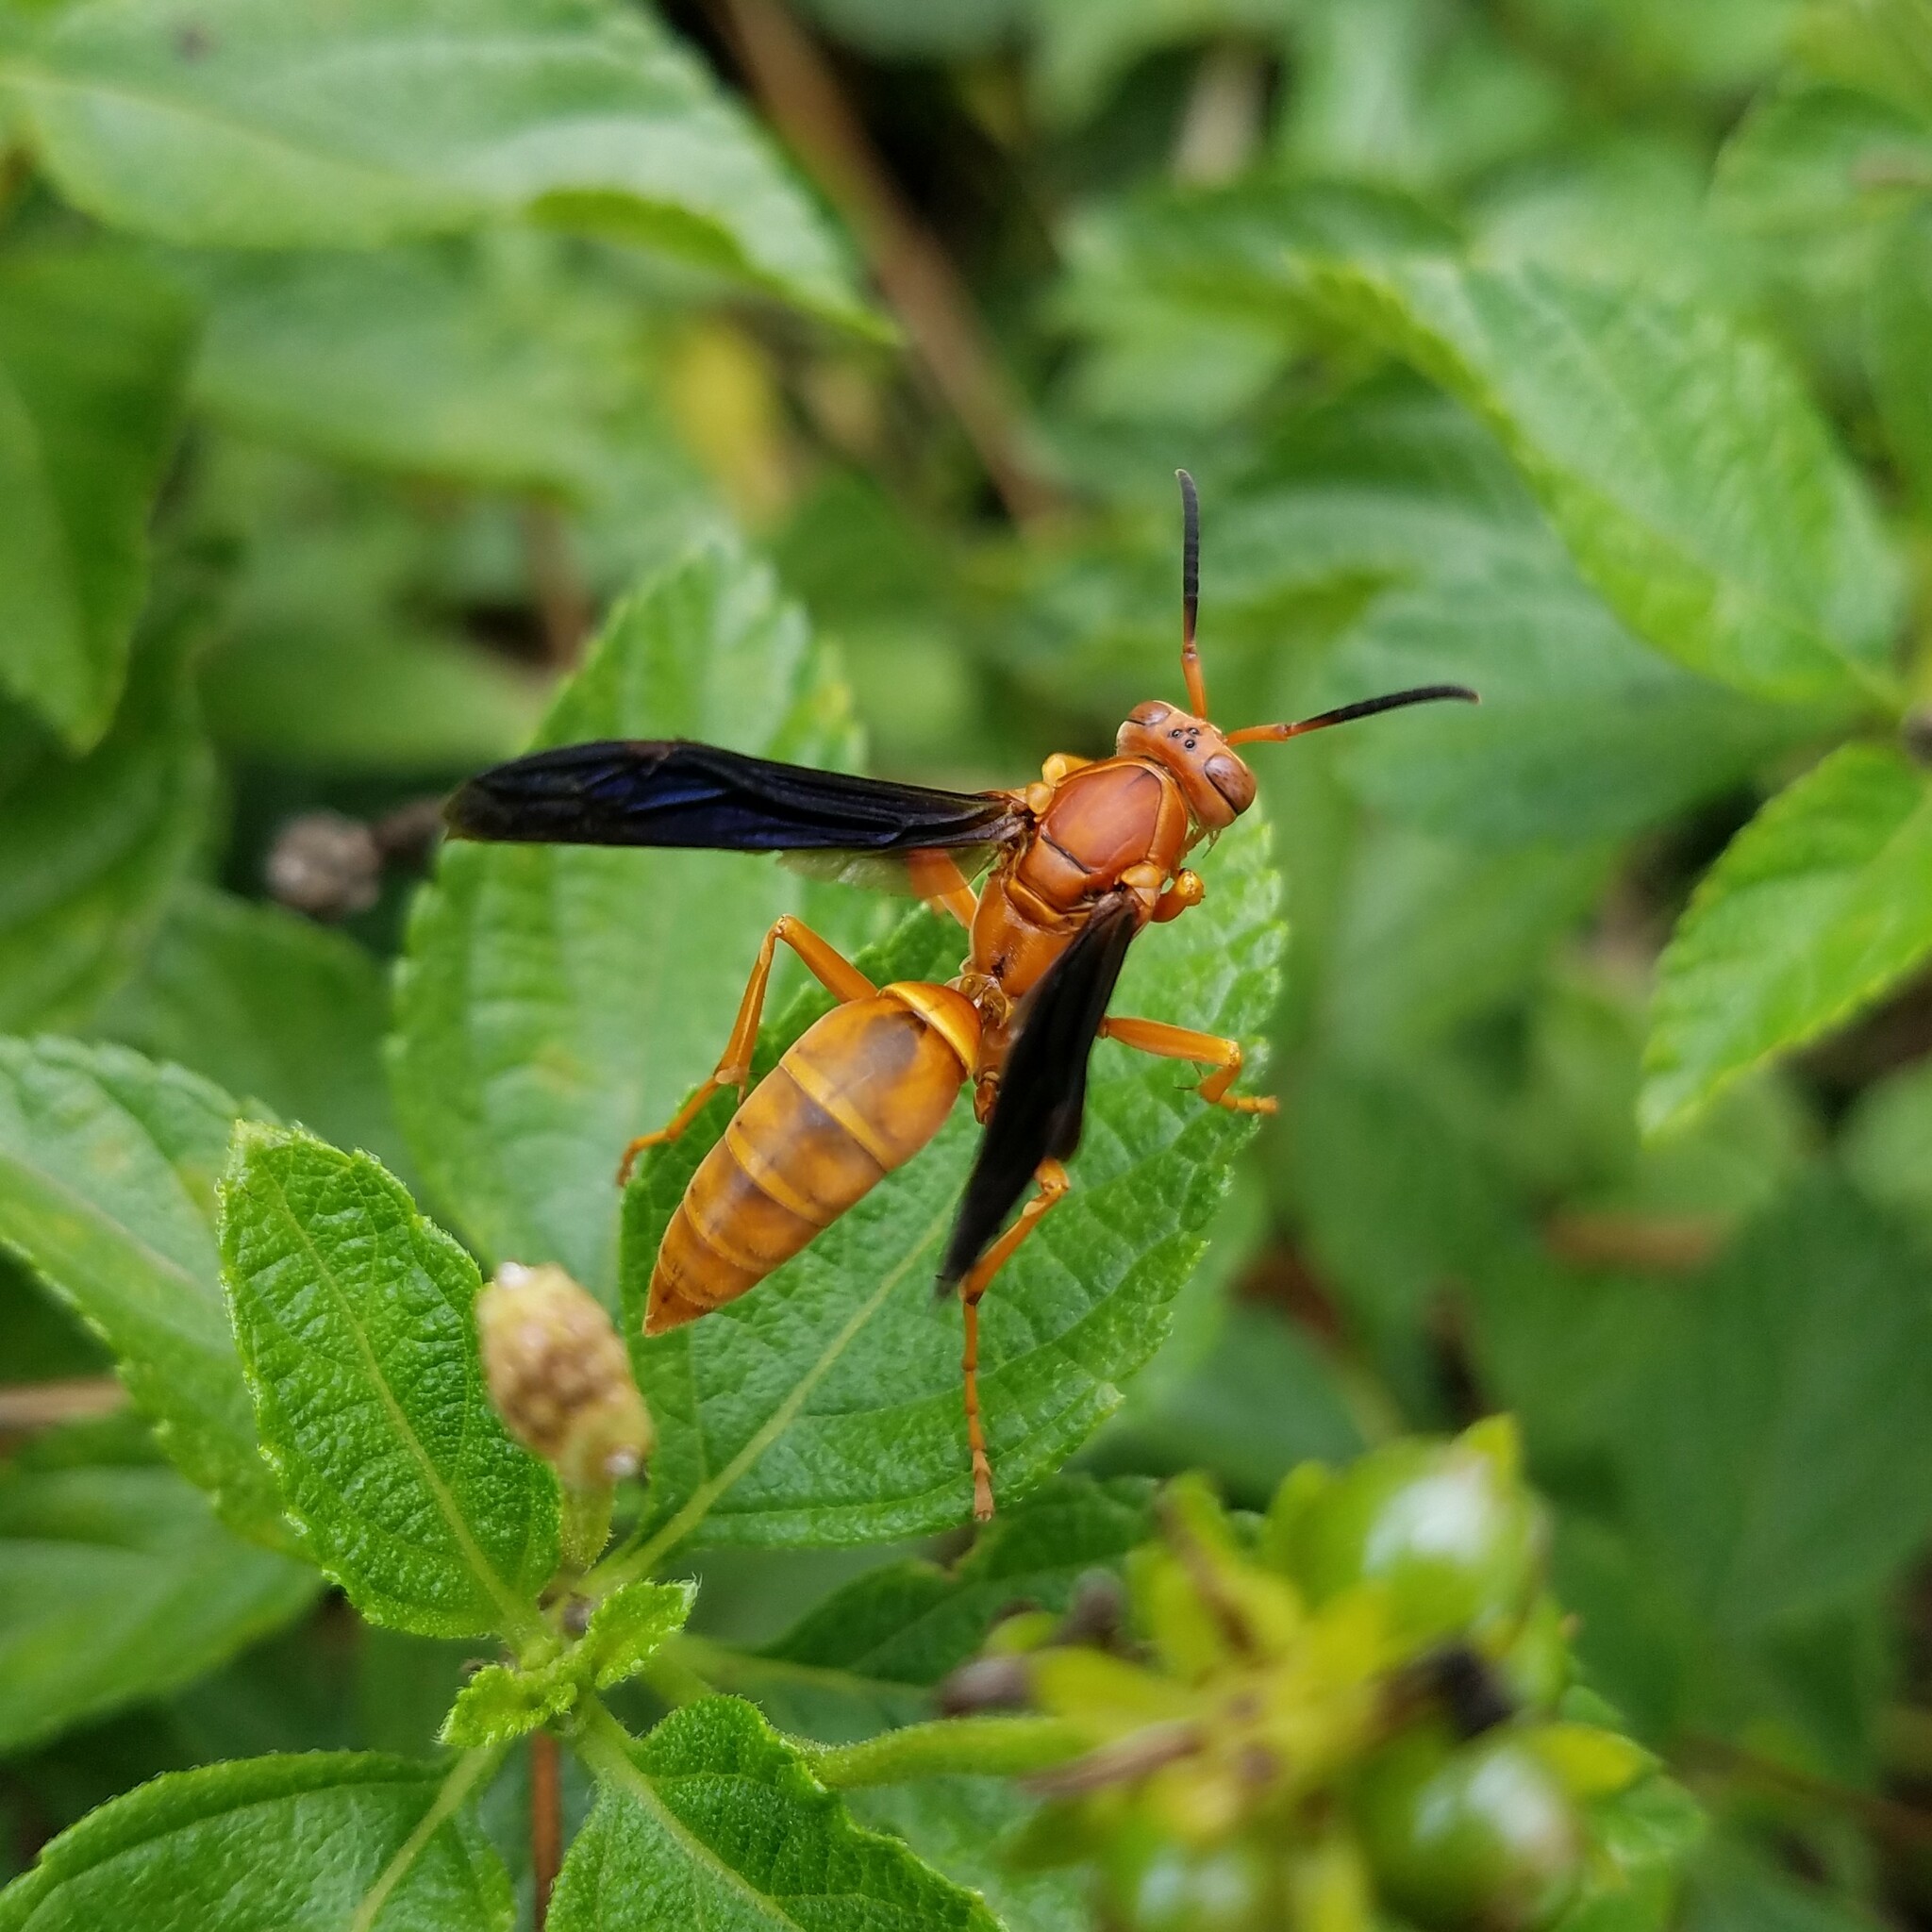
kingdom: Animalia
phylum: Arthropoda
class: Insecta
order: Hymenoptera
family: Vespidae
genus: Fuscopolistes
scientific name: Fuscopolistes
